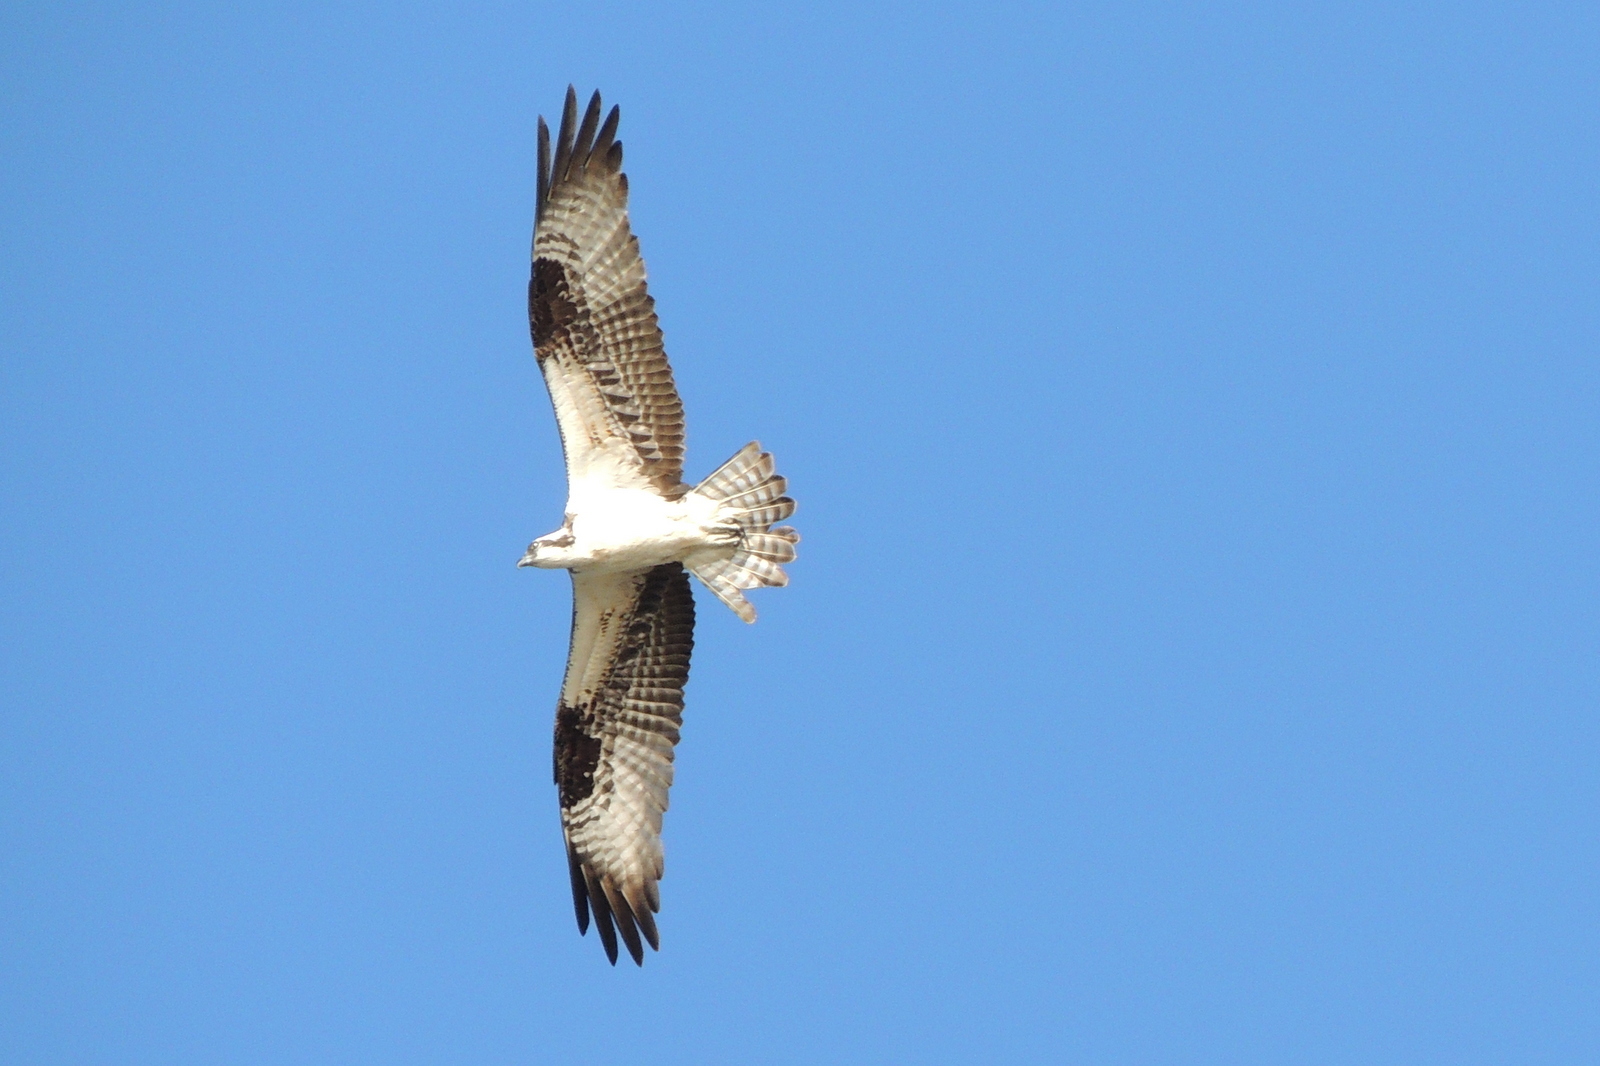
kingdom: Animalia
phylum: Chordata
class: Aves
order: Accipitriformes
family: Pandionidae
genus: Pandion
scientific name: Pandion haliaetus
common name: Osprey
